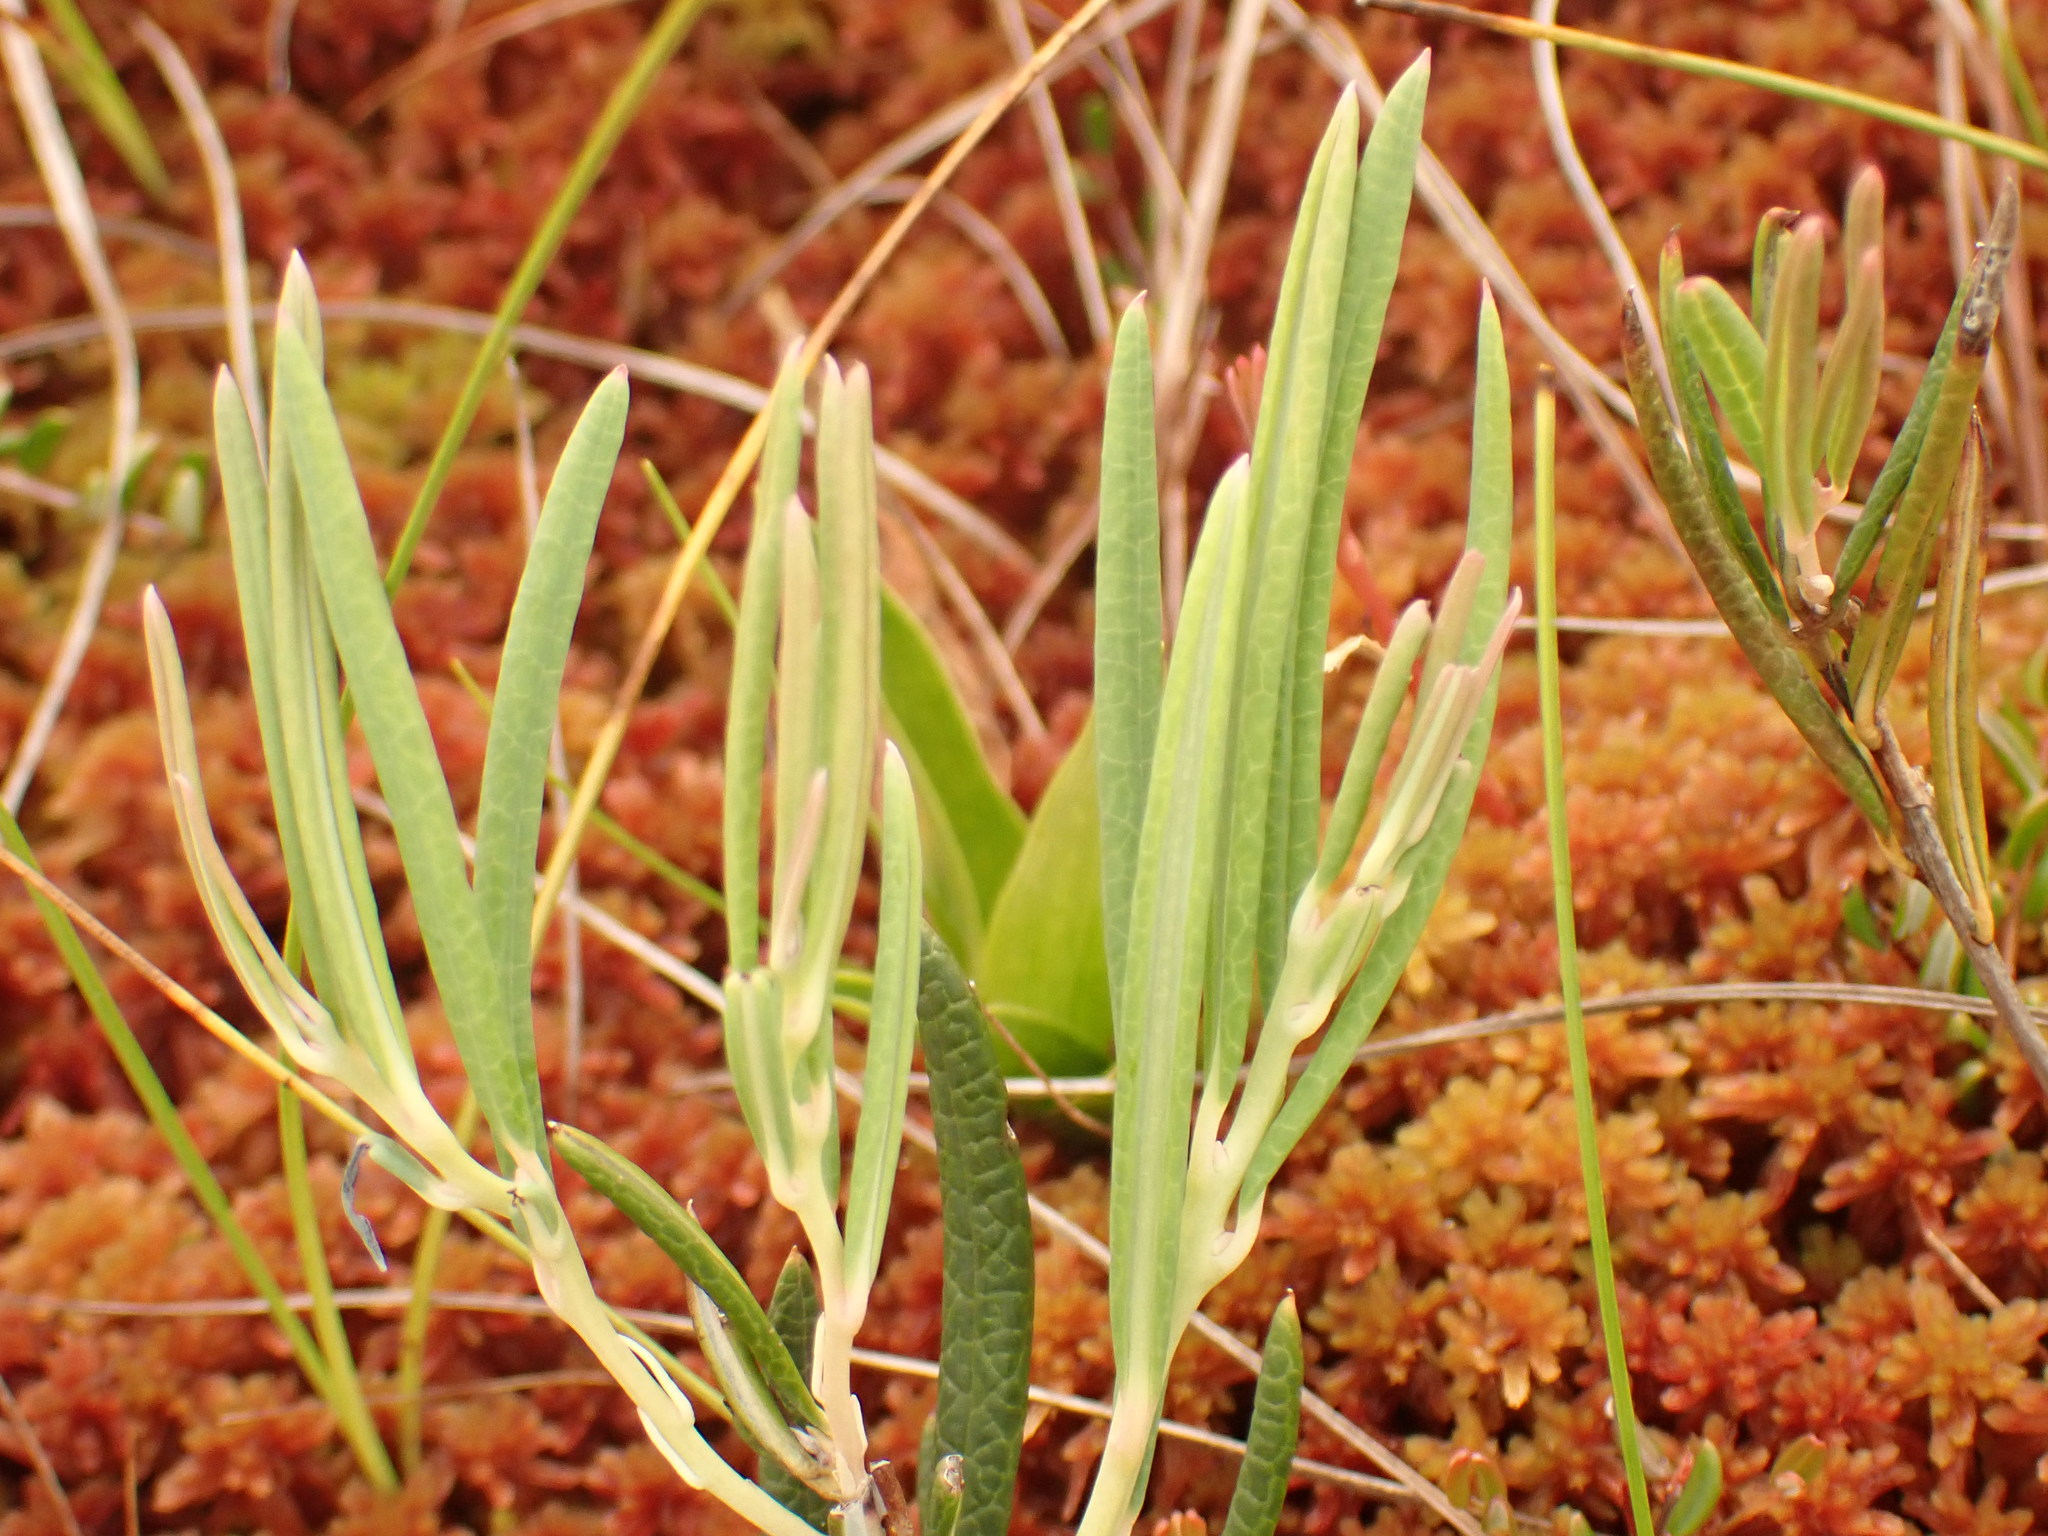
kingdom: Plantae
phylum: Tracheophyta
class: Magnoliopsida
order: Ericales
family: Ericaceae
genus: Andromeda
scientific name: Andromeda polifolia
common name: Bog-rosemary
